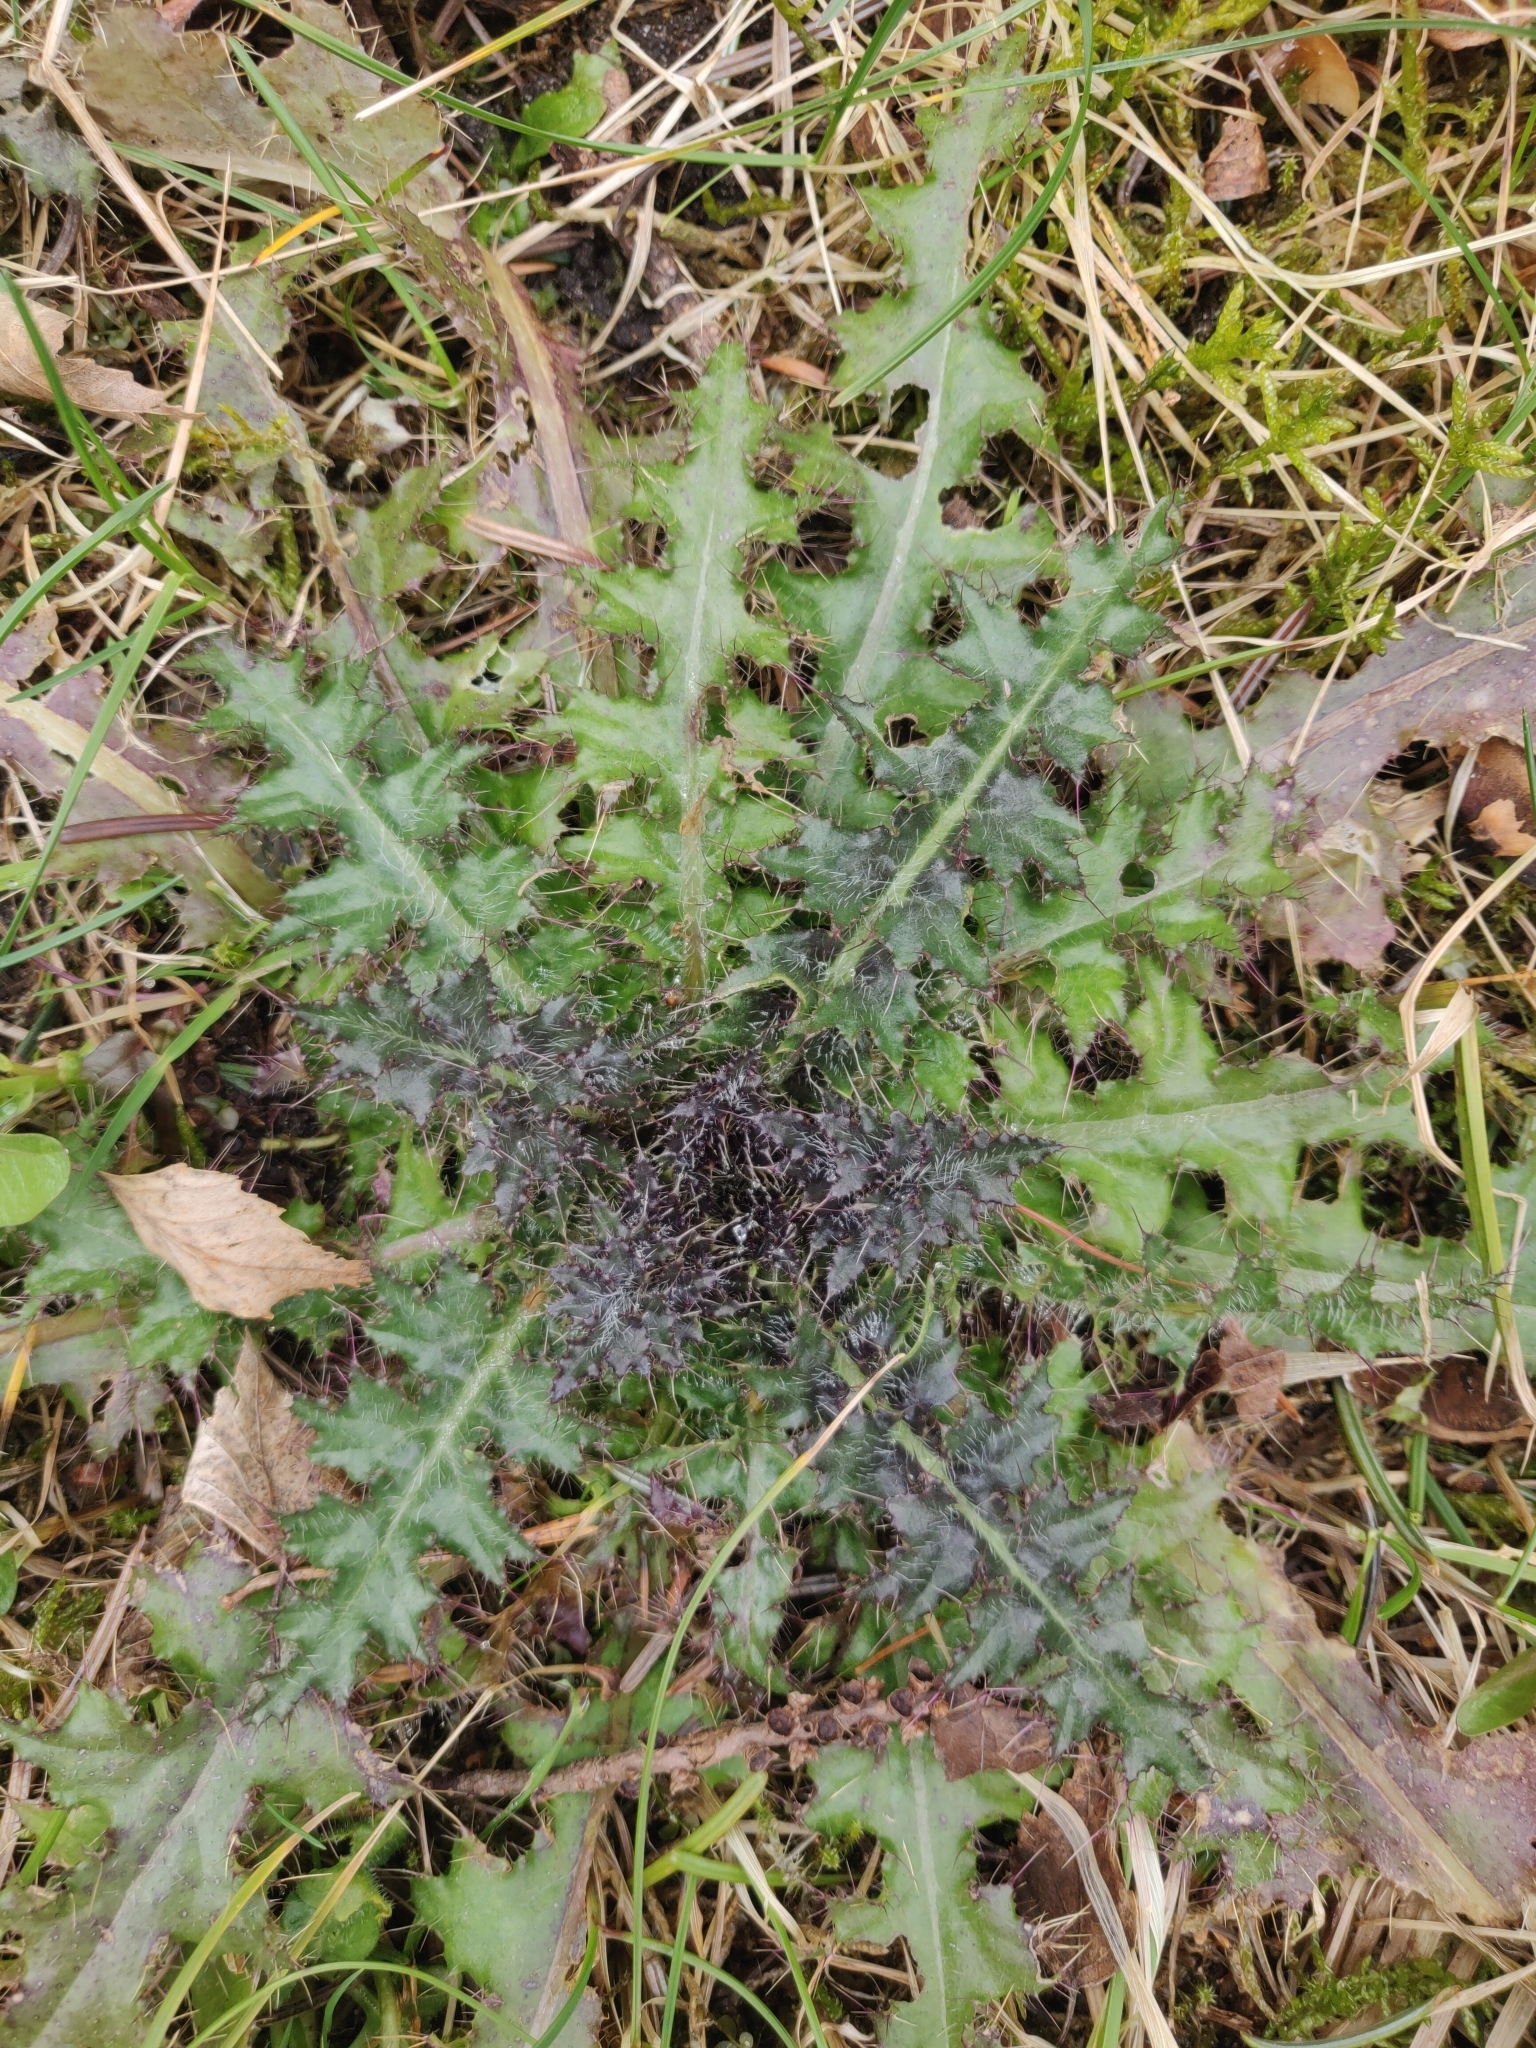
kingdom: Plantae
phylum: Tracheophyta
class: Magnoliopsida
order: Asterales
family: Asteraceae
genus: Cirsium
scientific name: Cirsium palustre
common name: Marsh thistle
